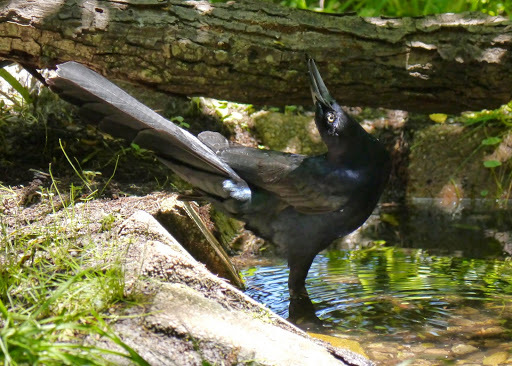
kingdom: Animalia
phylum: Chordata
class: Aves
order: Passeriformes
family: Icteridae
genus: Quiscalus
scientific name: Quiscalus mexicanus
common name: Great-tailed grackle
